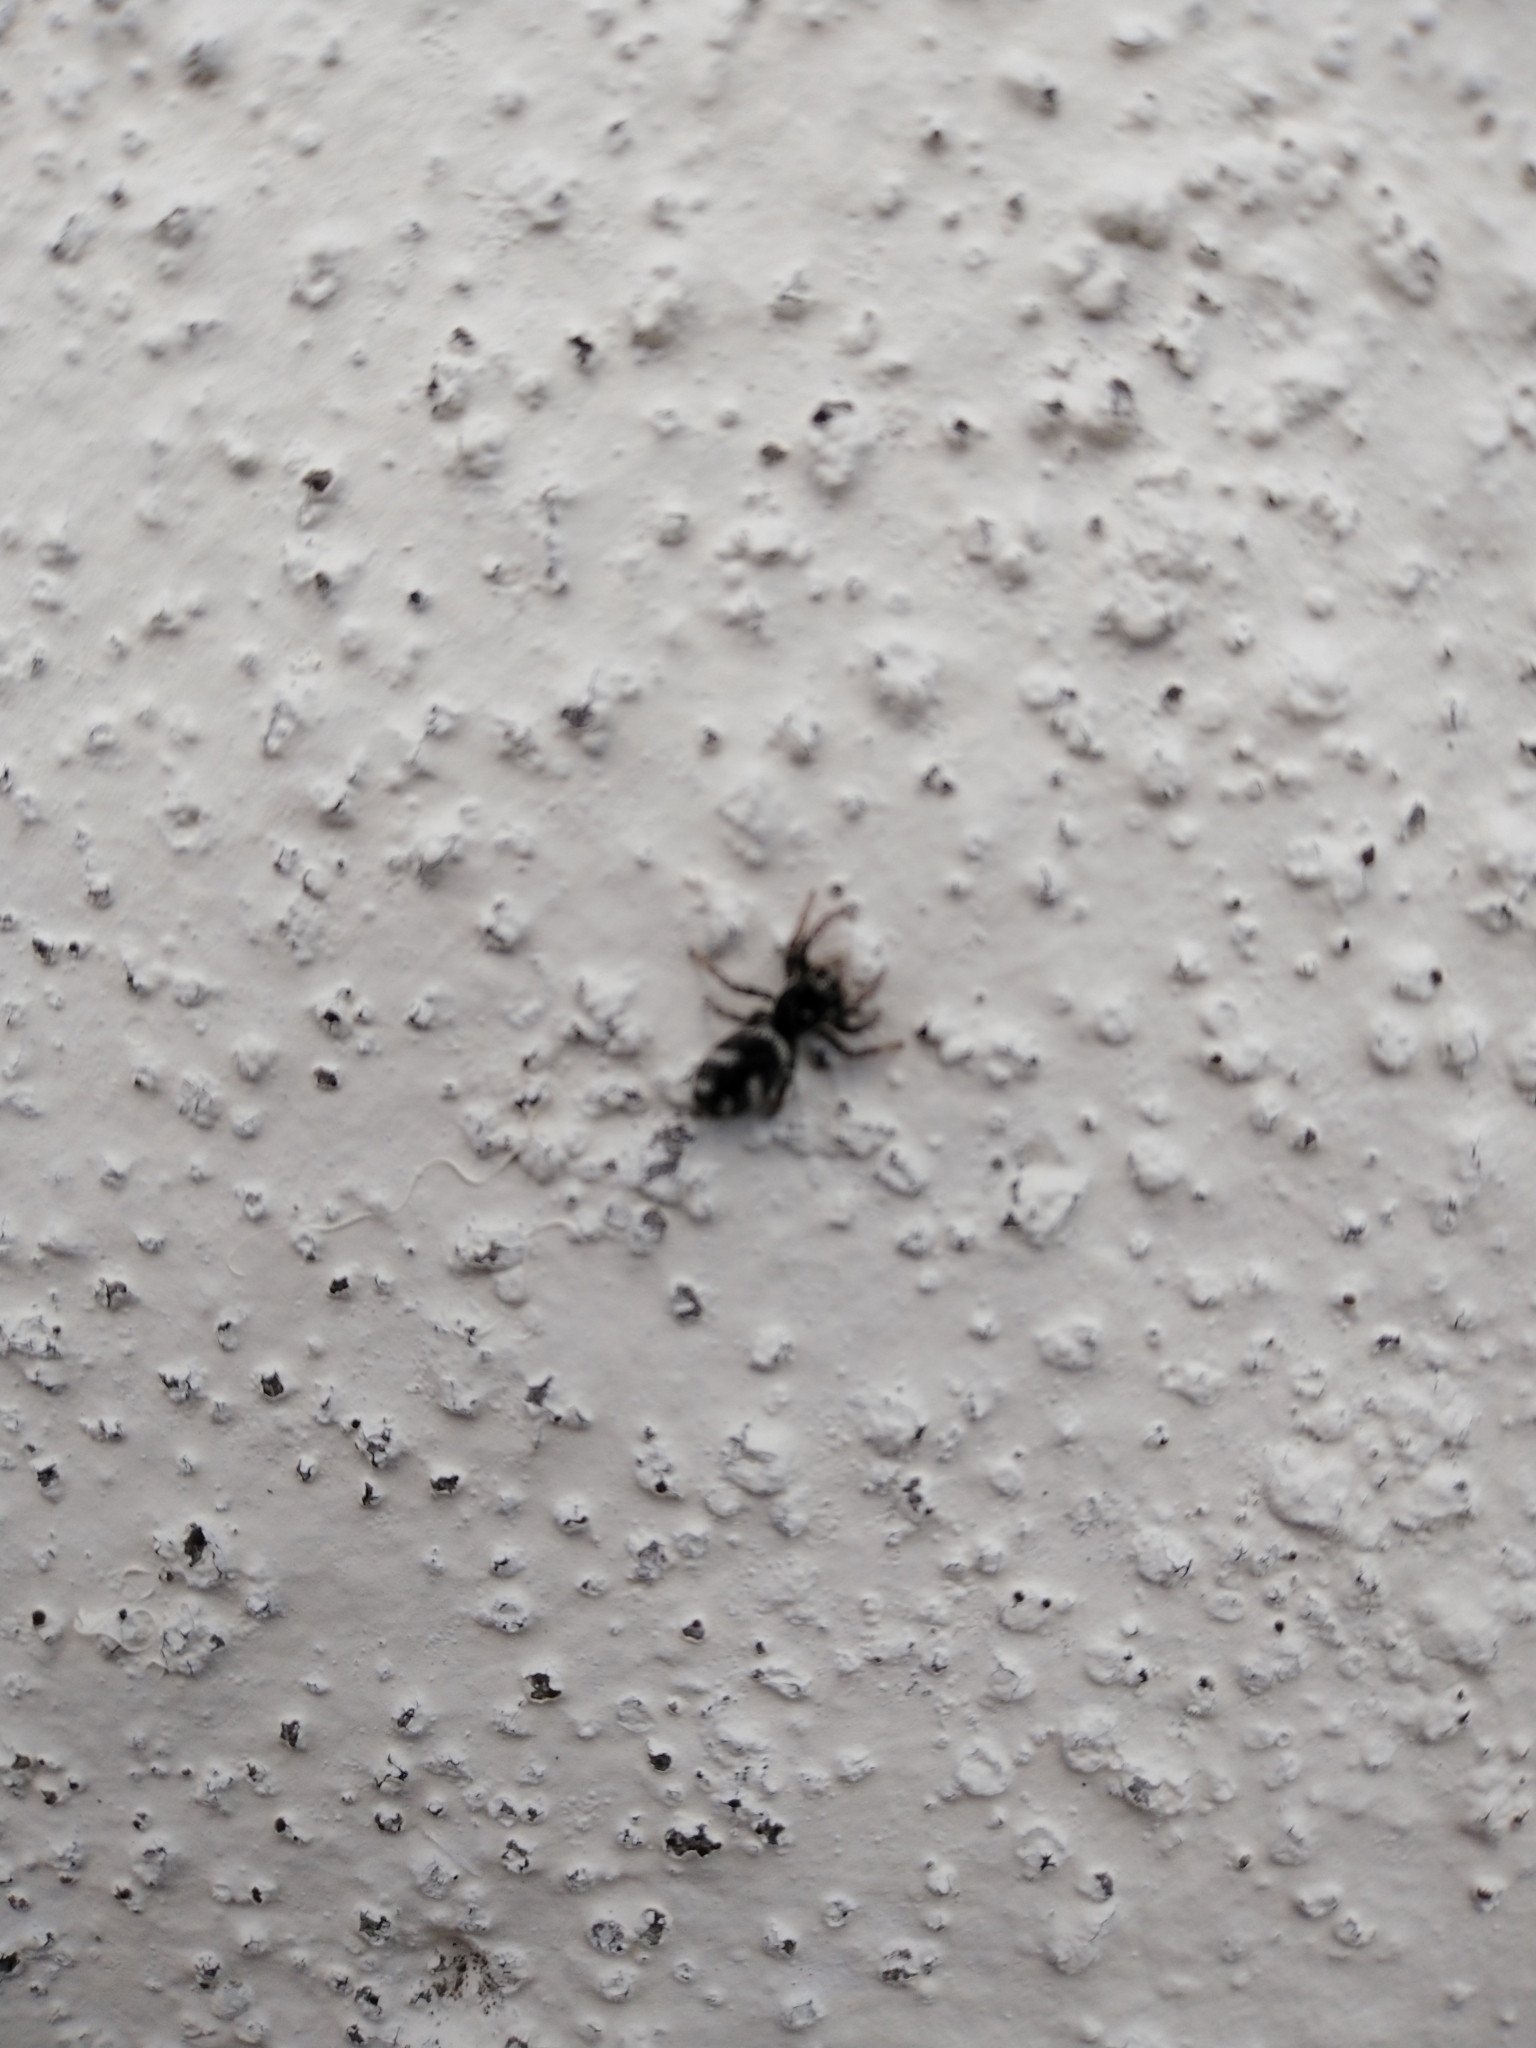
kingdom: Animalia
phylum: Arthropoda
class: Arachnida
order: Araneae
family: Salticidae
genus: Salticus
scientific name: Salticus scenicus
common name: Zebra jumper
